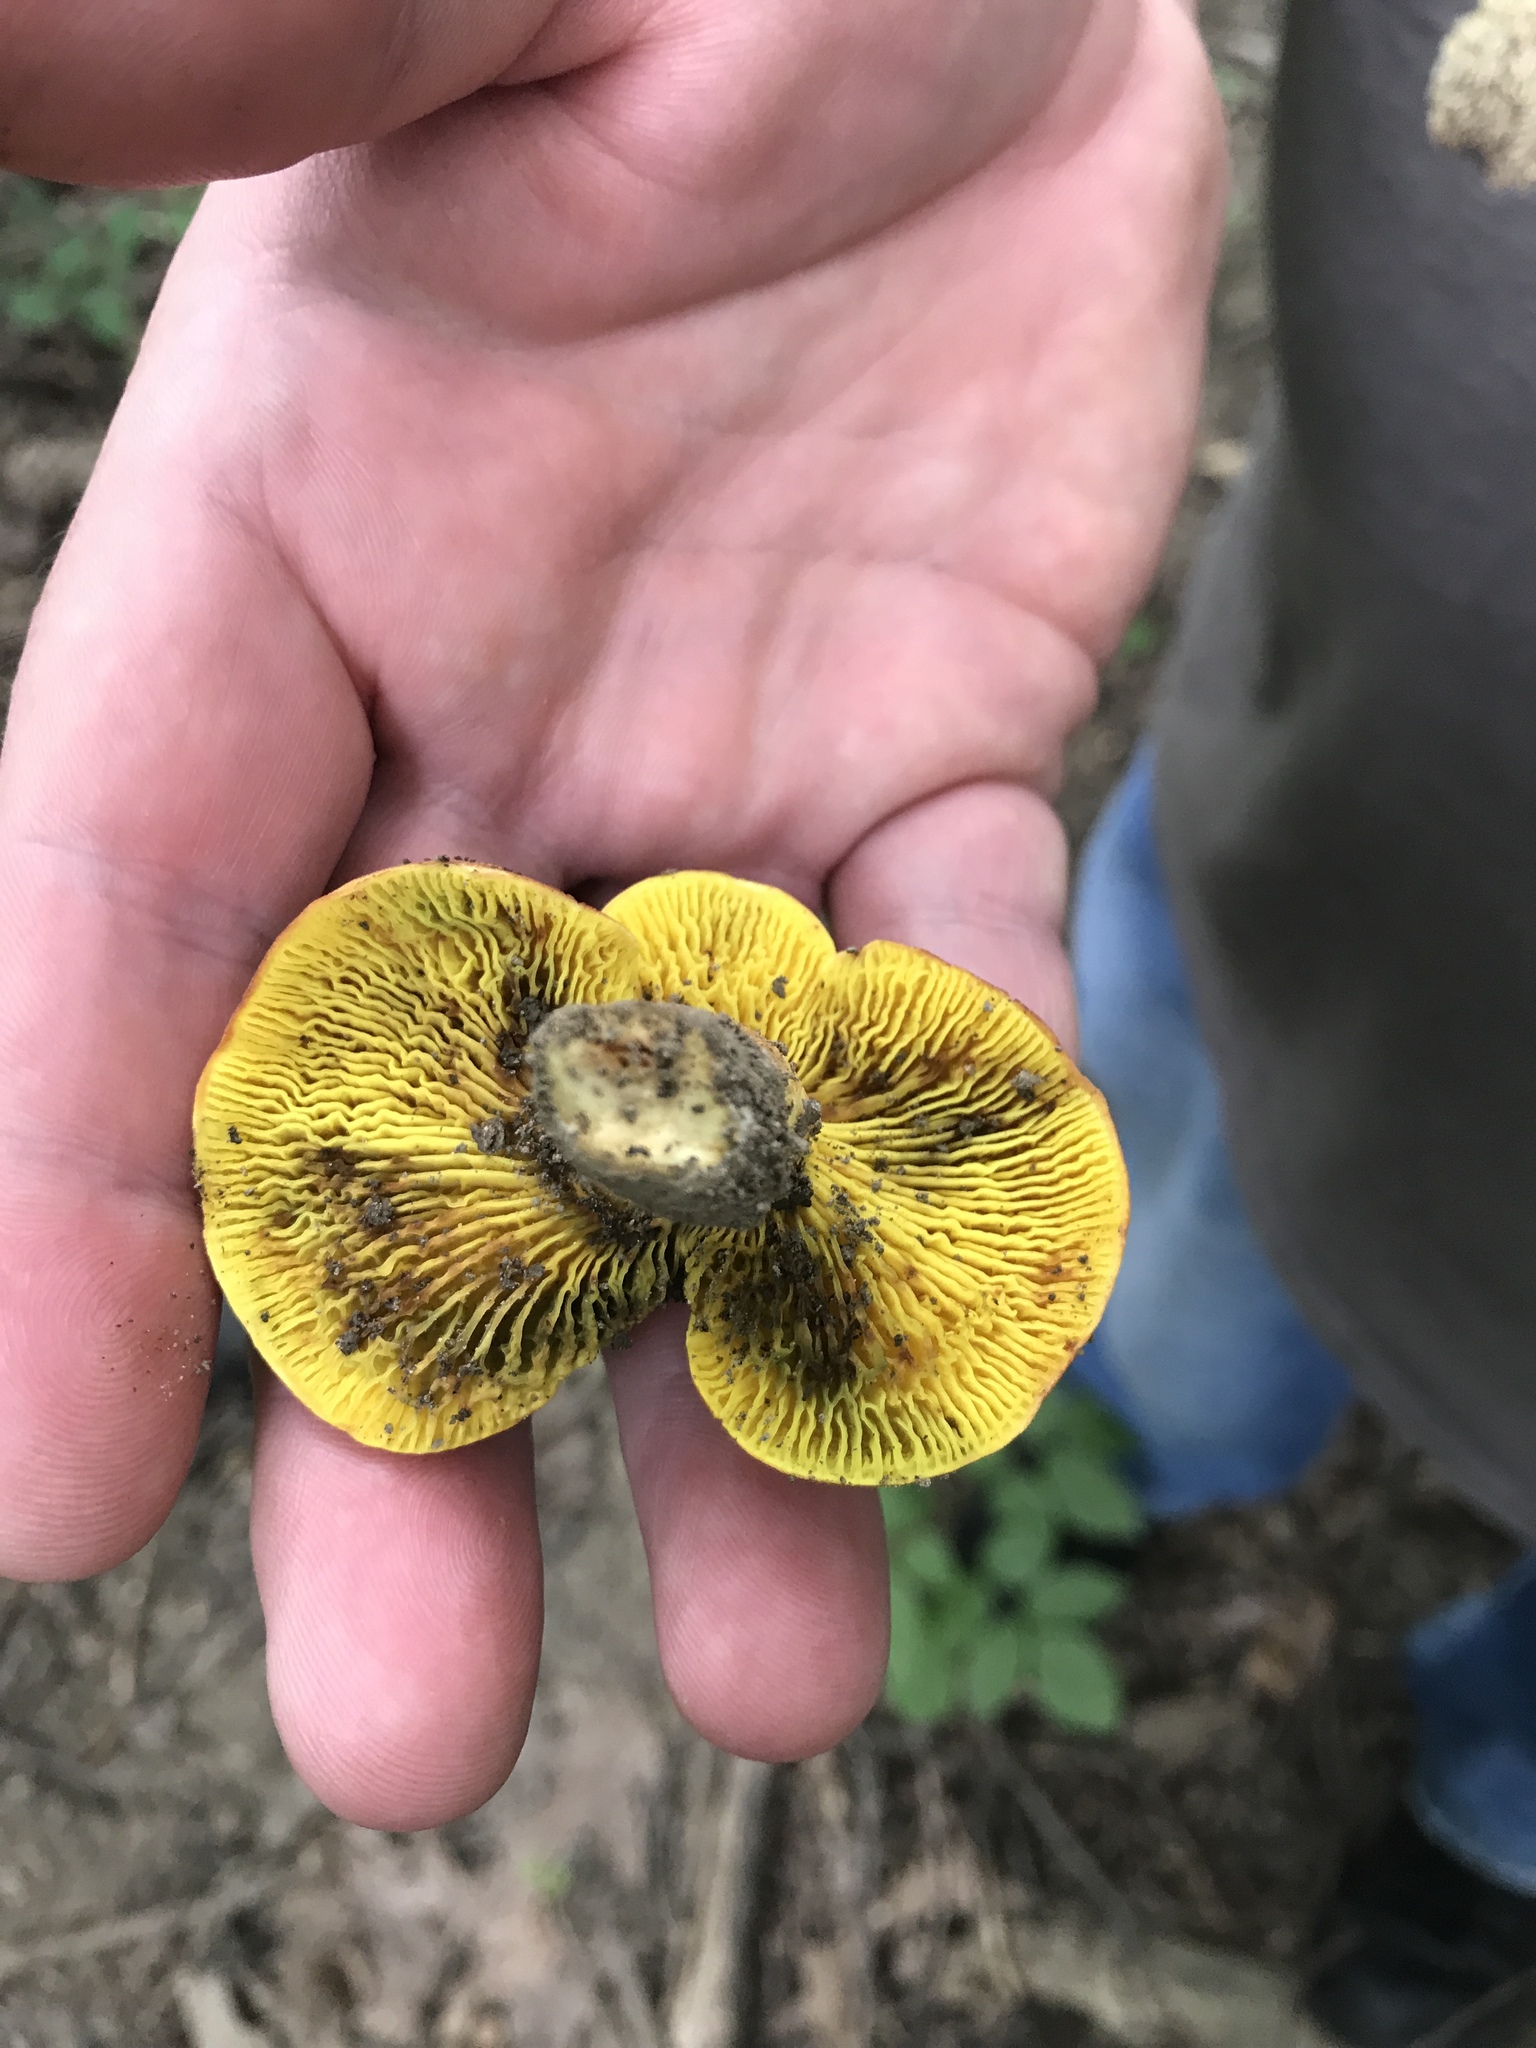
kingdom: Fungi
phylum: Basidiomycota
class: Agaricomycetes
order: Boletales
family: Boletaceae
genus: Phylloporus
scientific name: Phylloporus rhodoxanthus
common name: Golden gilled bolete
